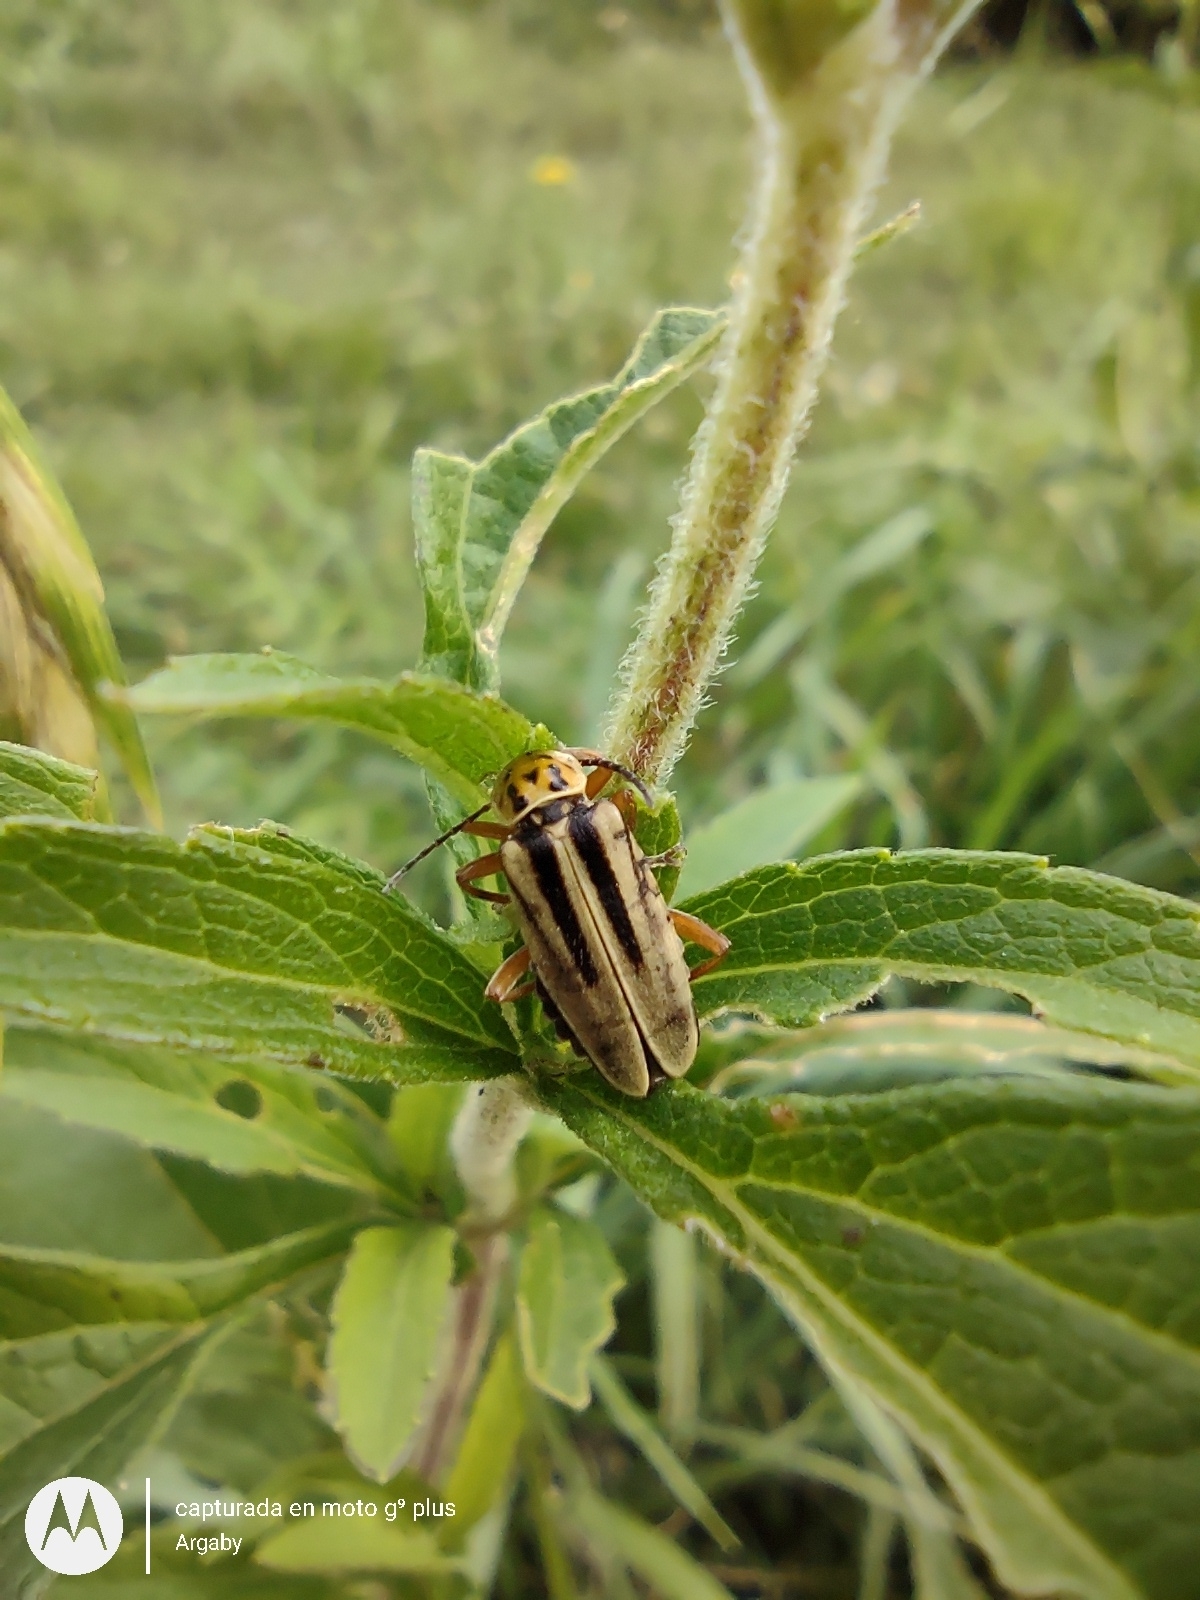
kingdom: Animalia
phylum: Arthropoda
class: Insecta
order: Coleoptera
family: Cantharidae
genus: Chauliognathus
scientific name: Chauliognathus
